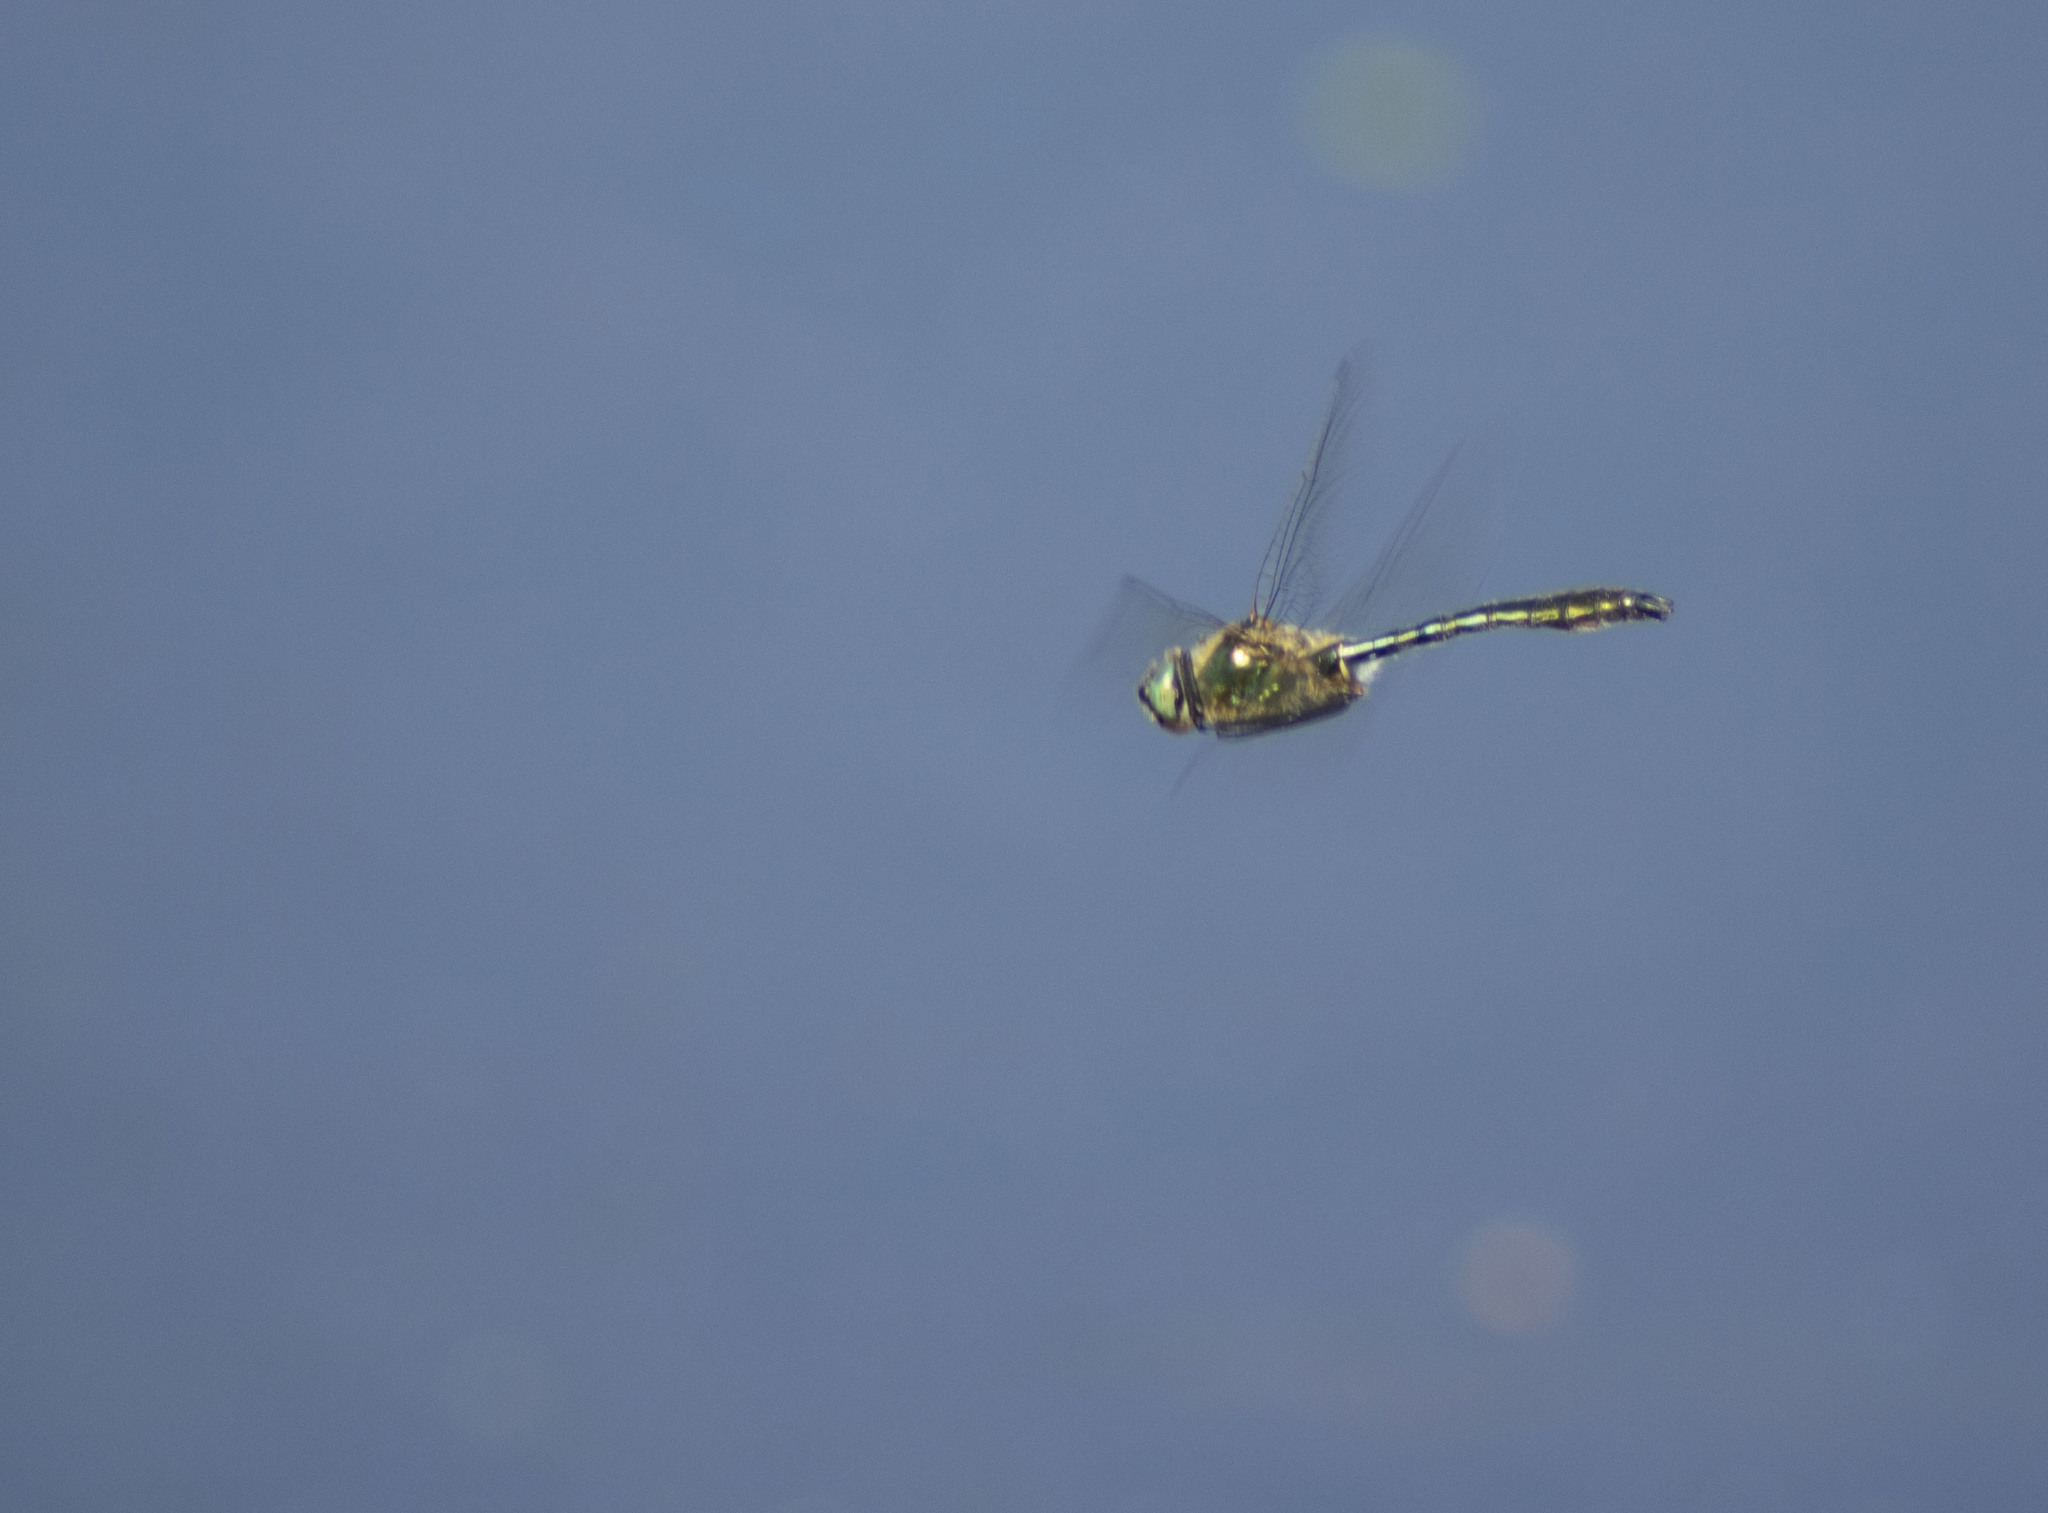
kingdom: Animalia
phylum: Arthropoda
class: Insecta
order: Odonata
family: Corduliidae
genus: Cordulia
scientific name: Cordulia aenea
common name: Downy emerald
